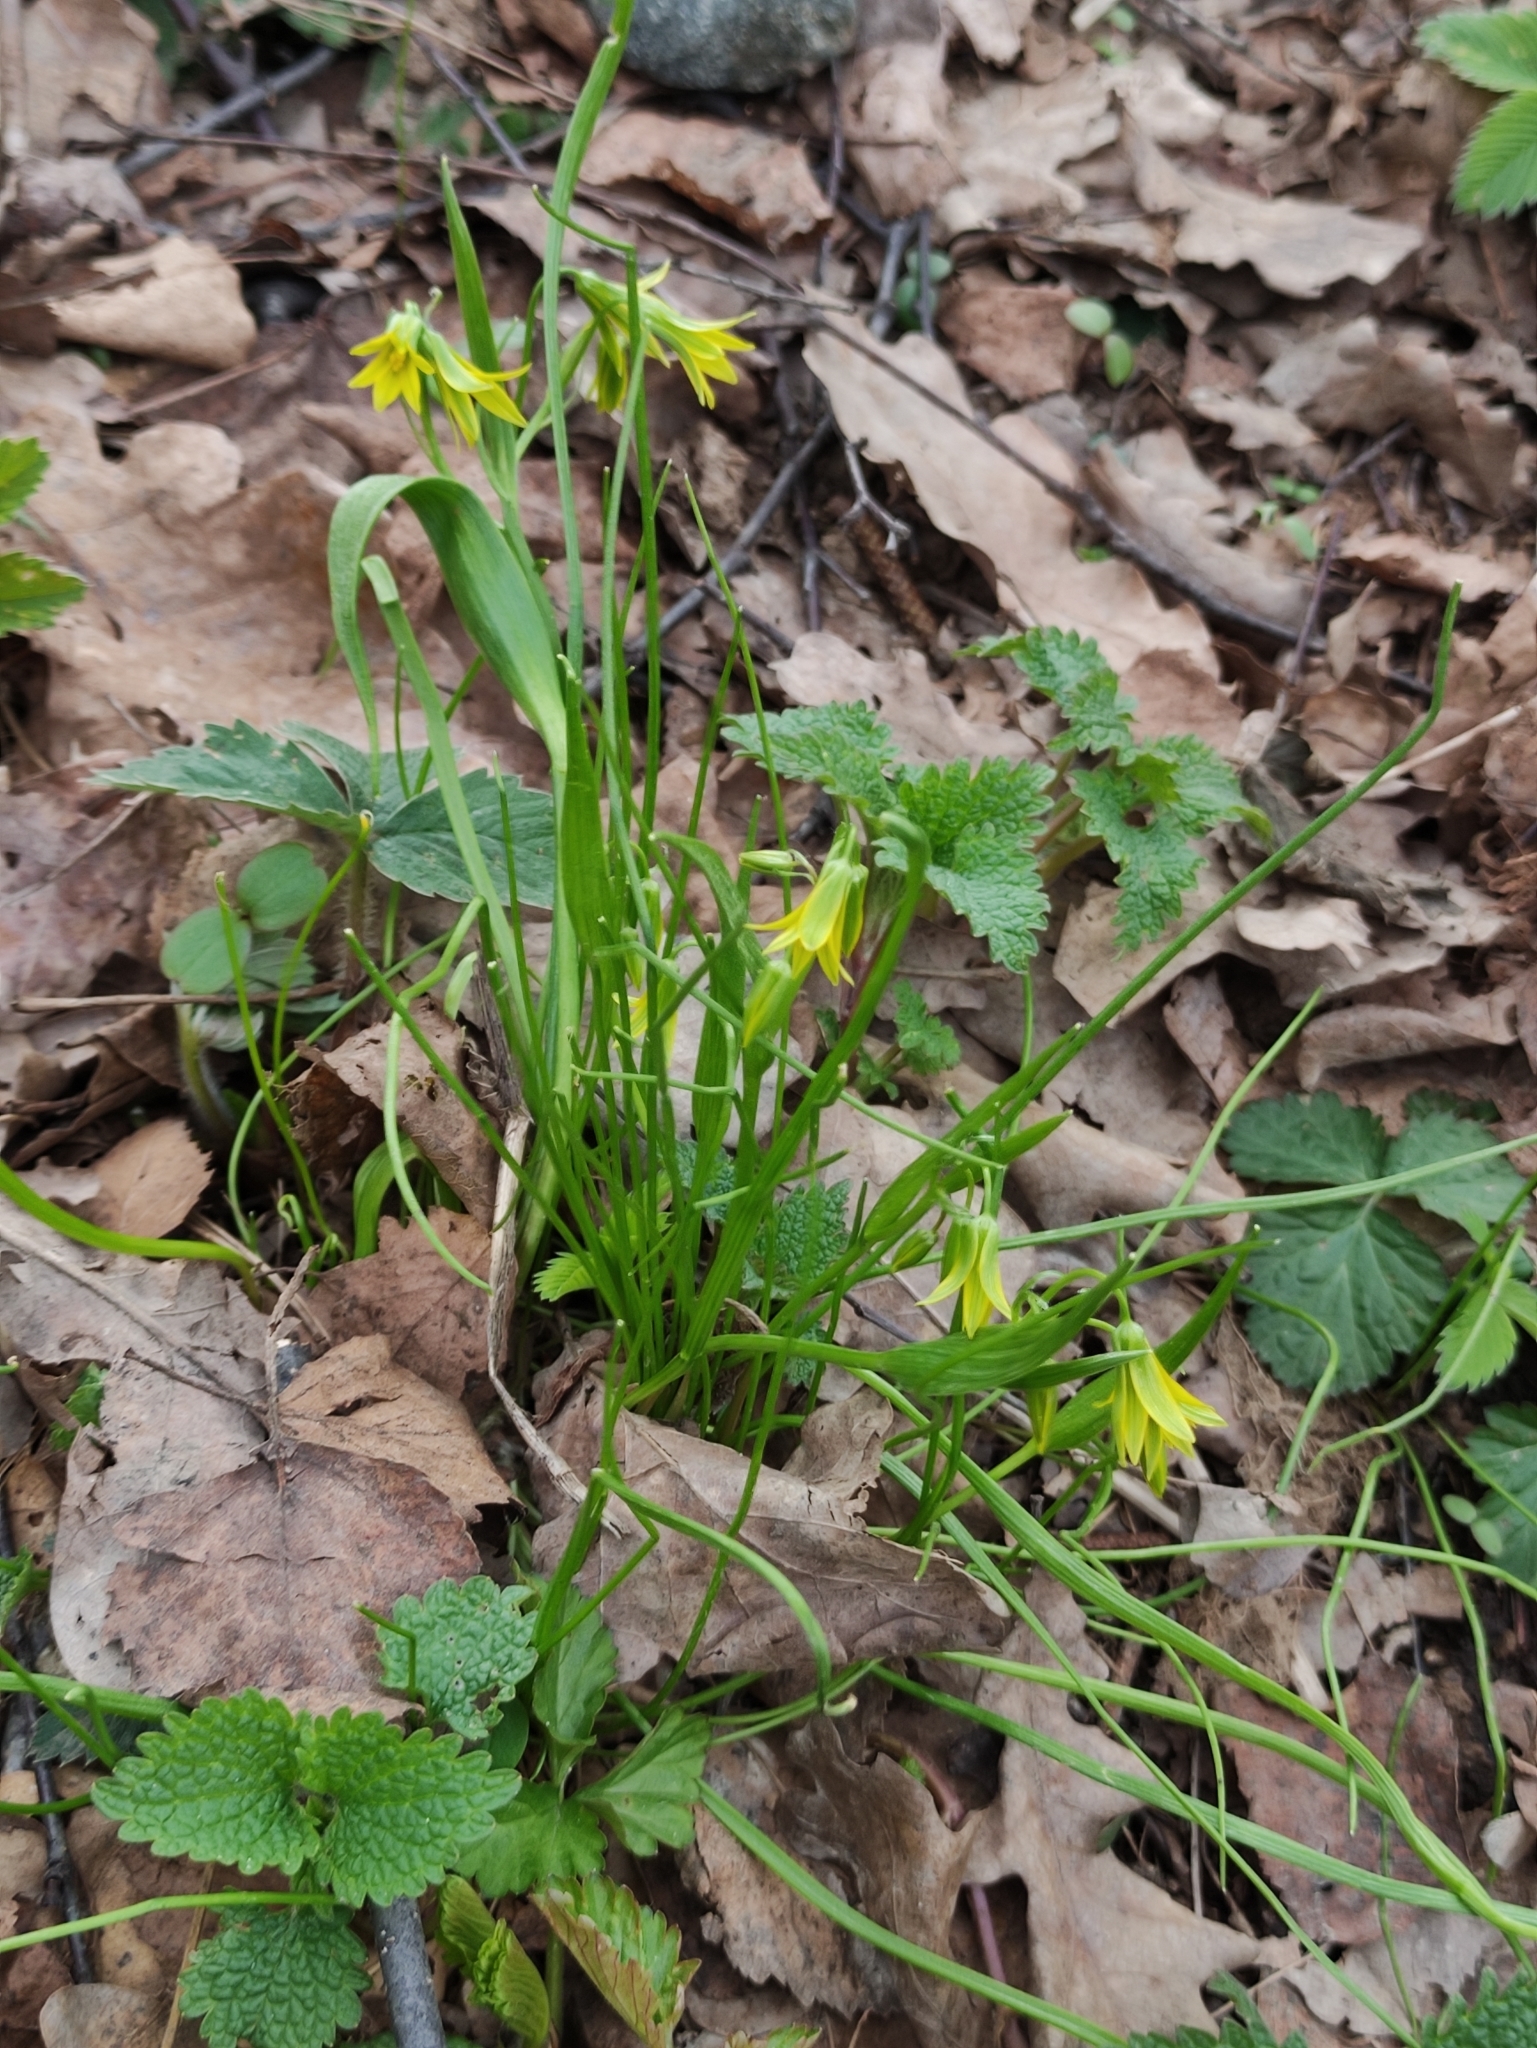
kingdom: Plantae
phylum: Tracheophyta
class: Liliopsida
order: Liliales
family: Liliaceae
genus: Gagea
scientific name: Gagea minima
